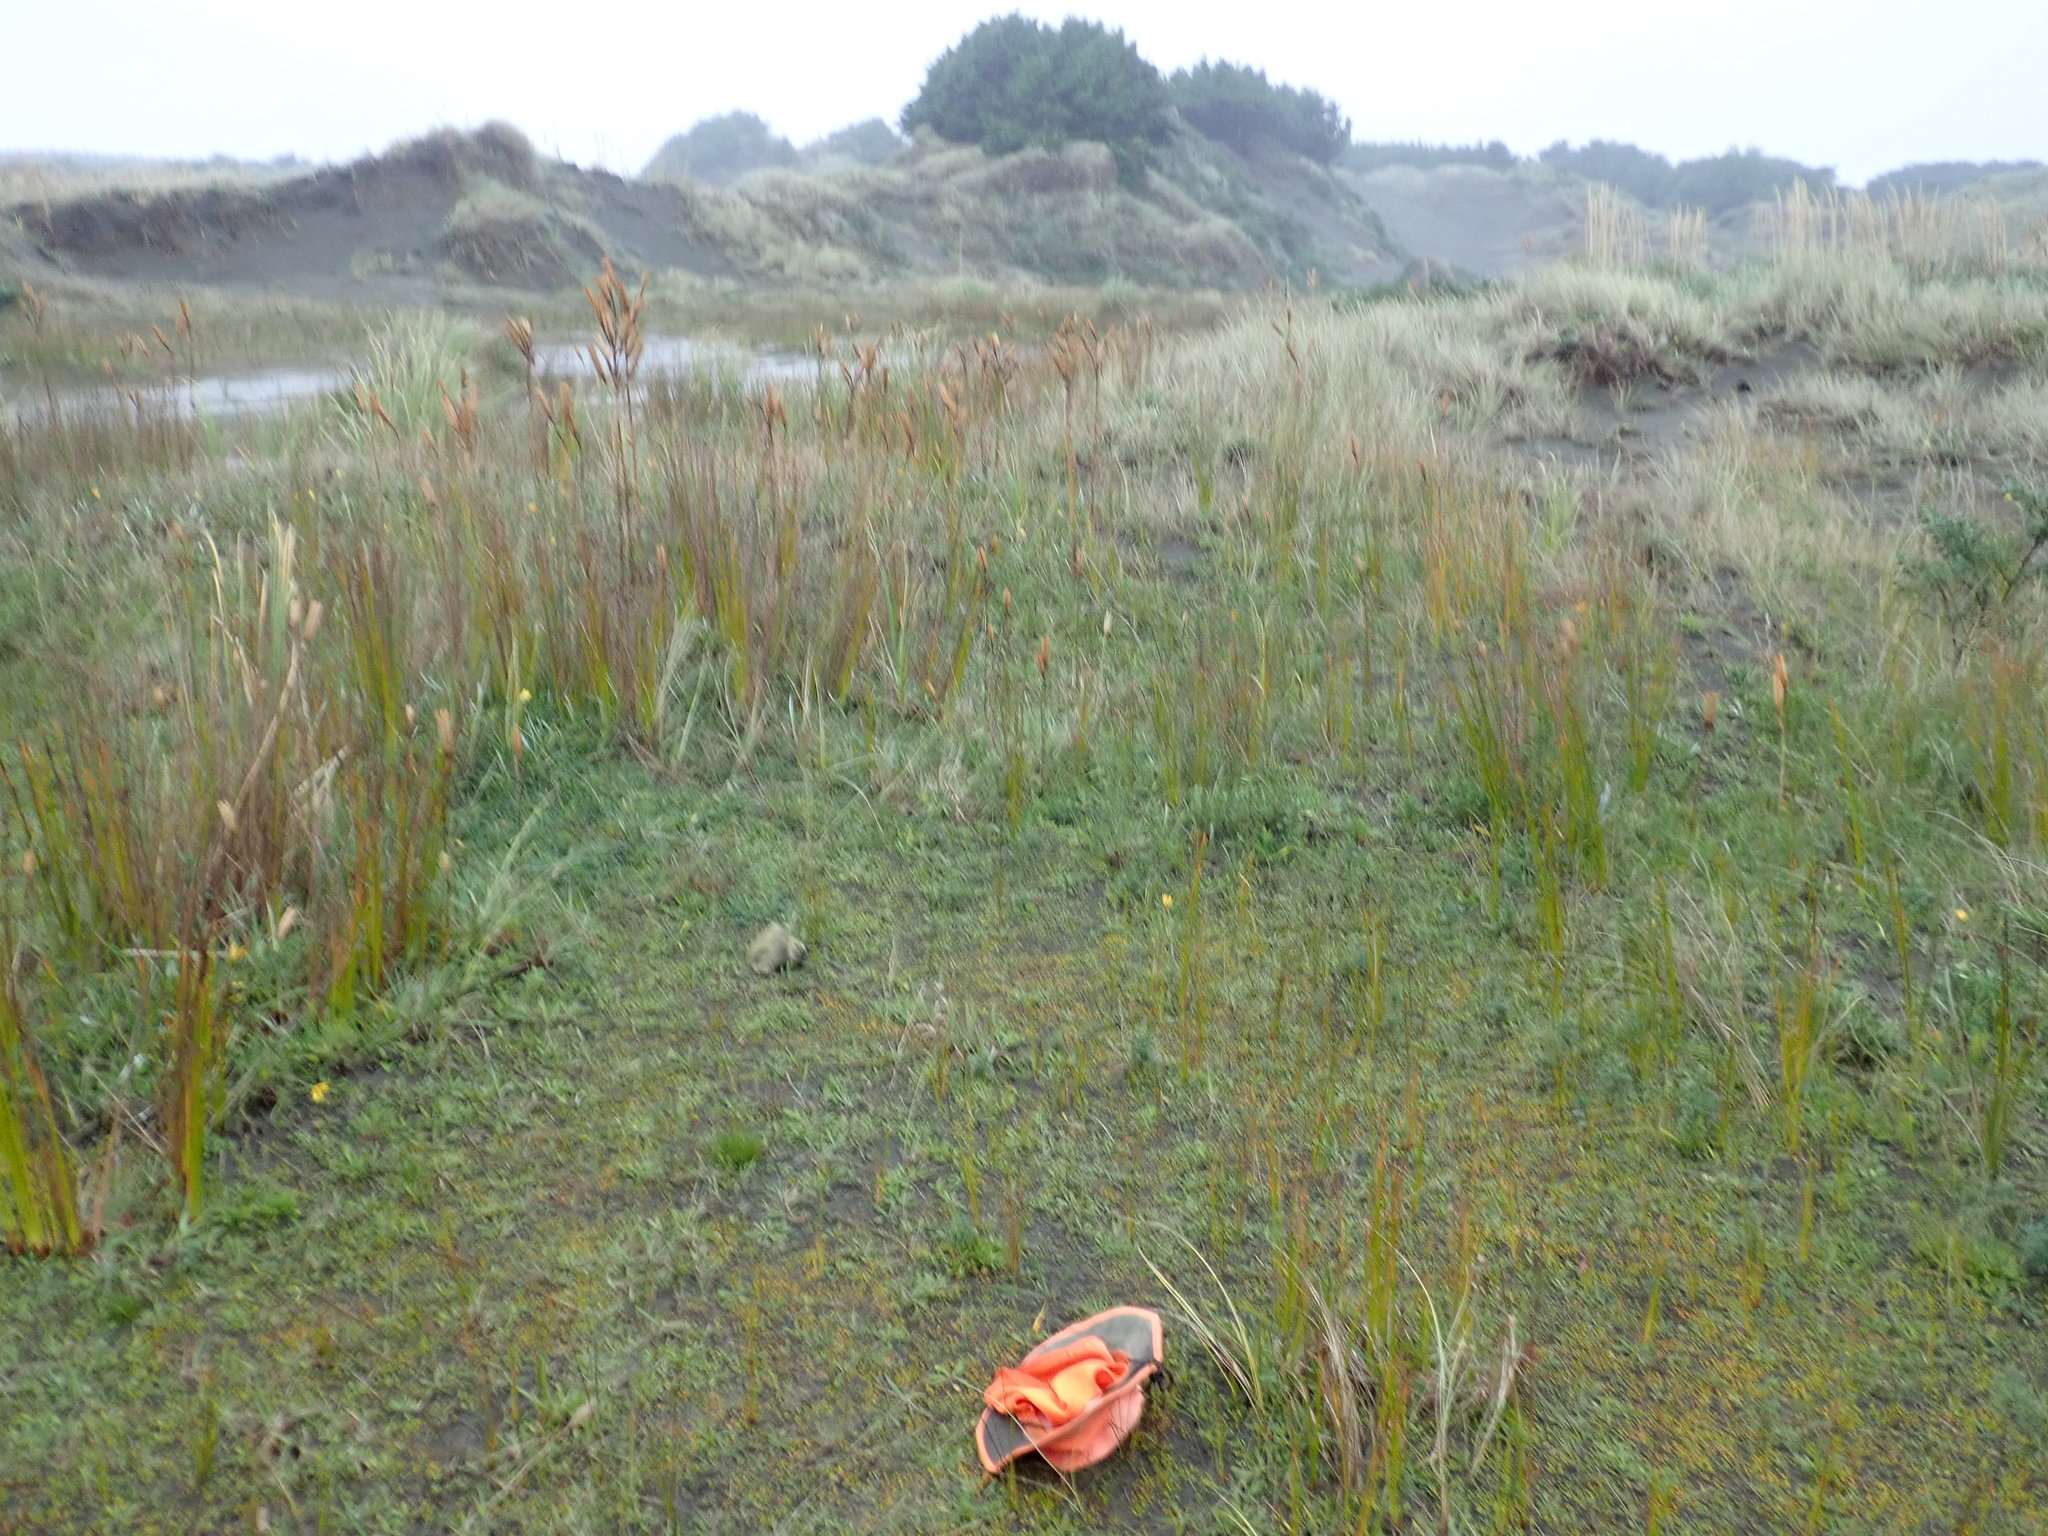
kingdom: Plantae
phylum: Tracheophyta
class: Magnoliopsida
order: Asterales
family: Goodeniaceae
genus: Goodenia
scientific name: Goodenia heenanii
